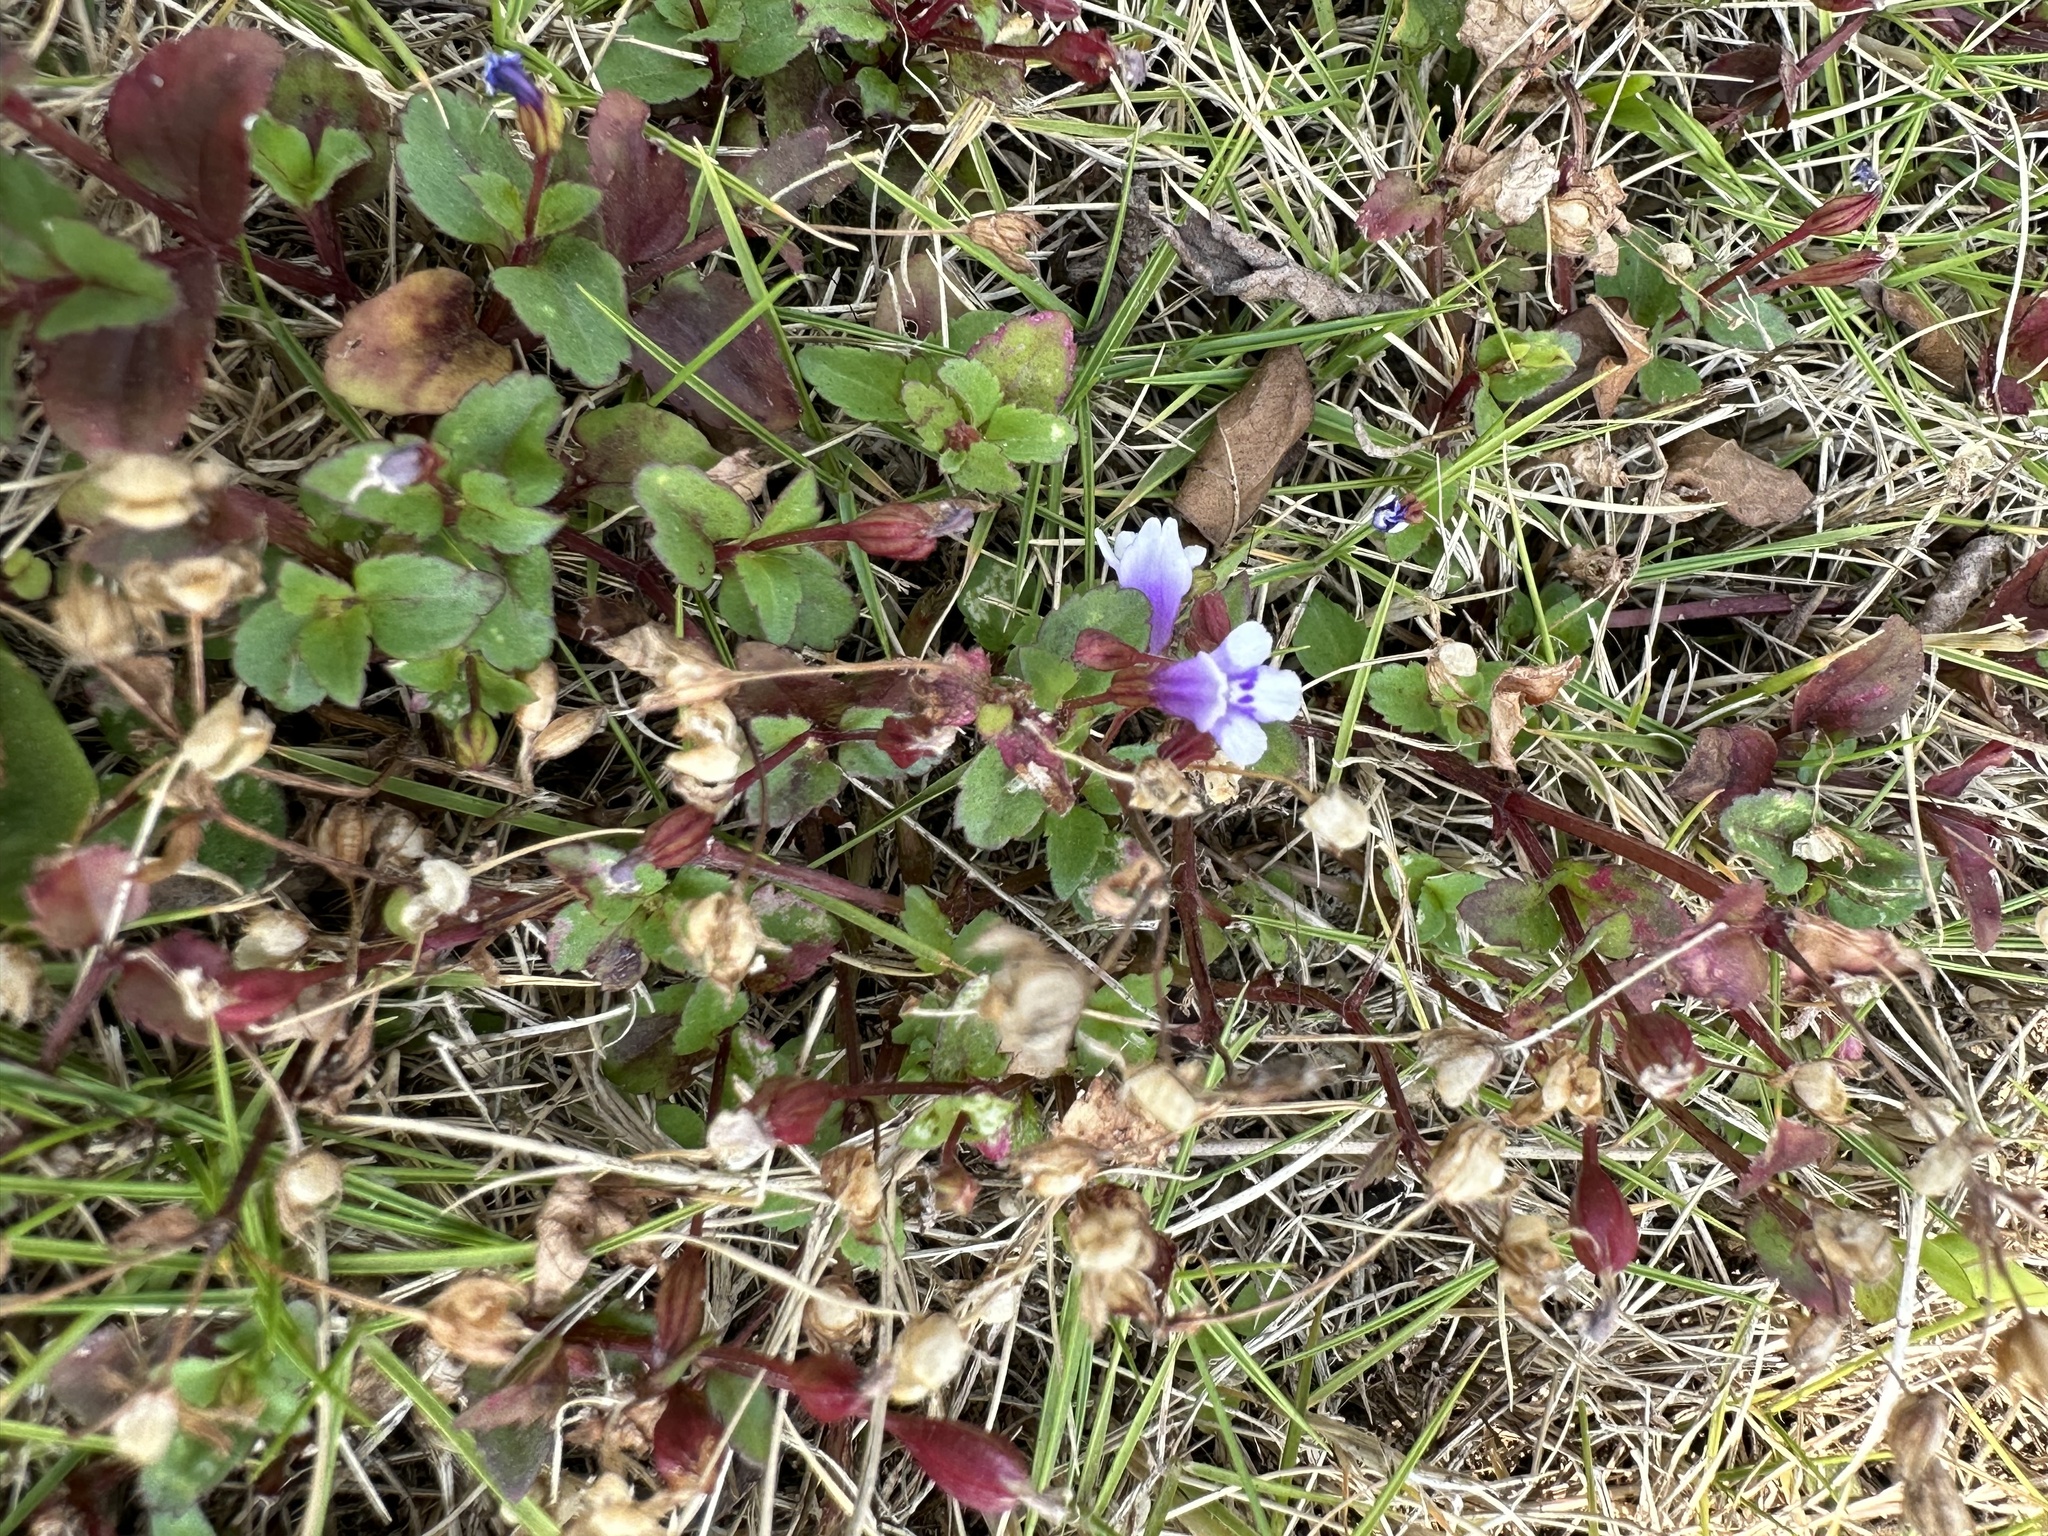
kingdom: Plantae
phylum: Tracheophyta
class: Magnoliopsida
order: Lamiales
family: Linderniaceae
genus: Torenia
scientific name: Torenia crustacea
